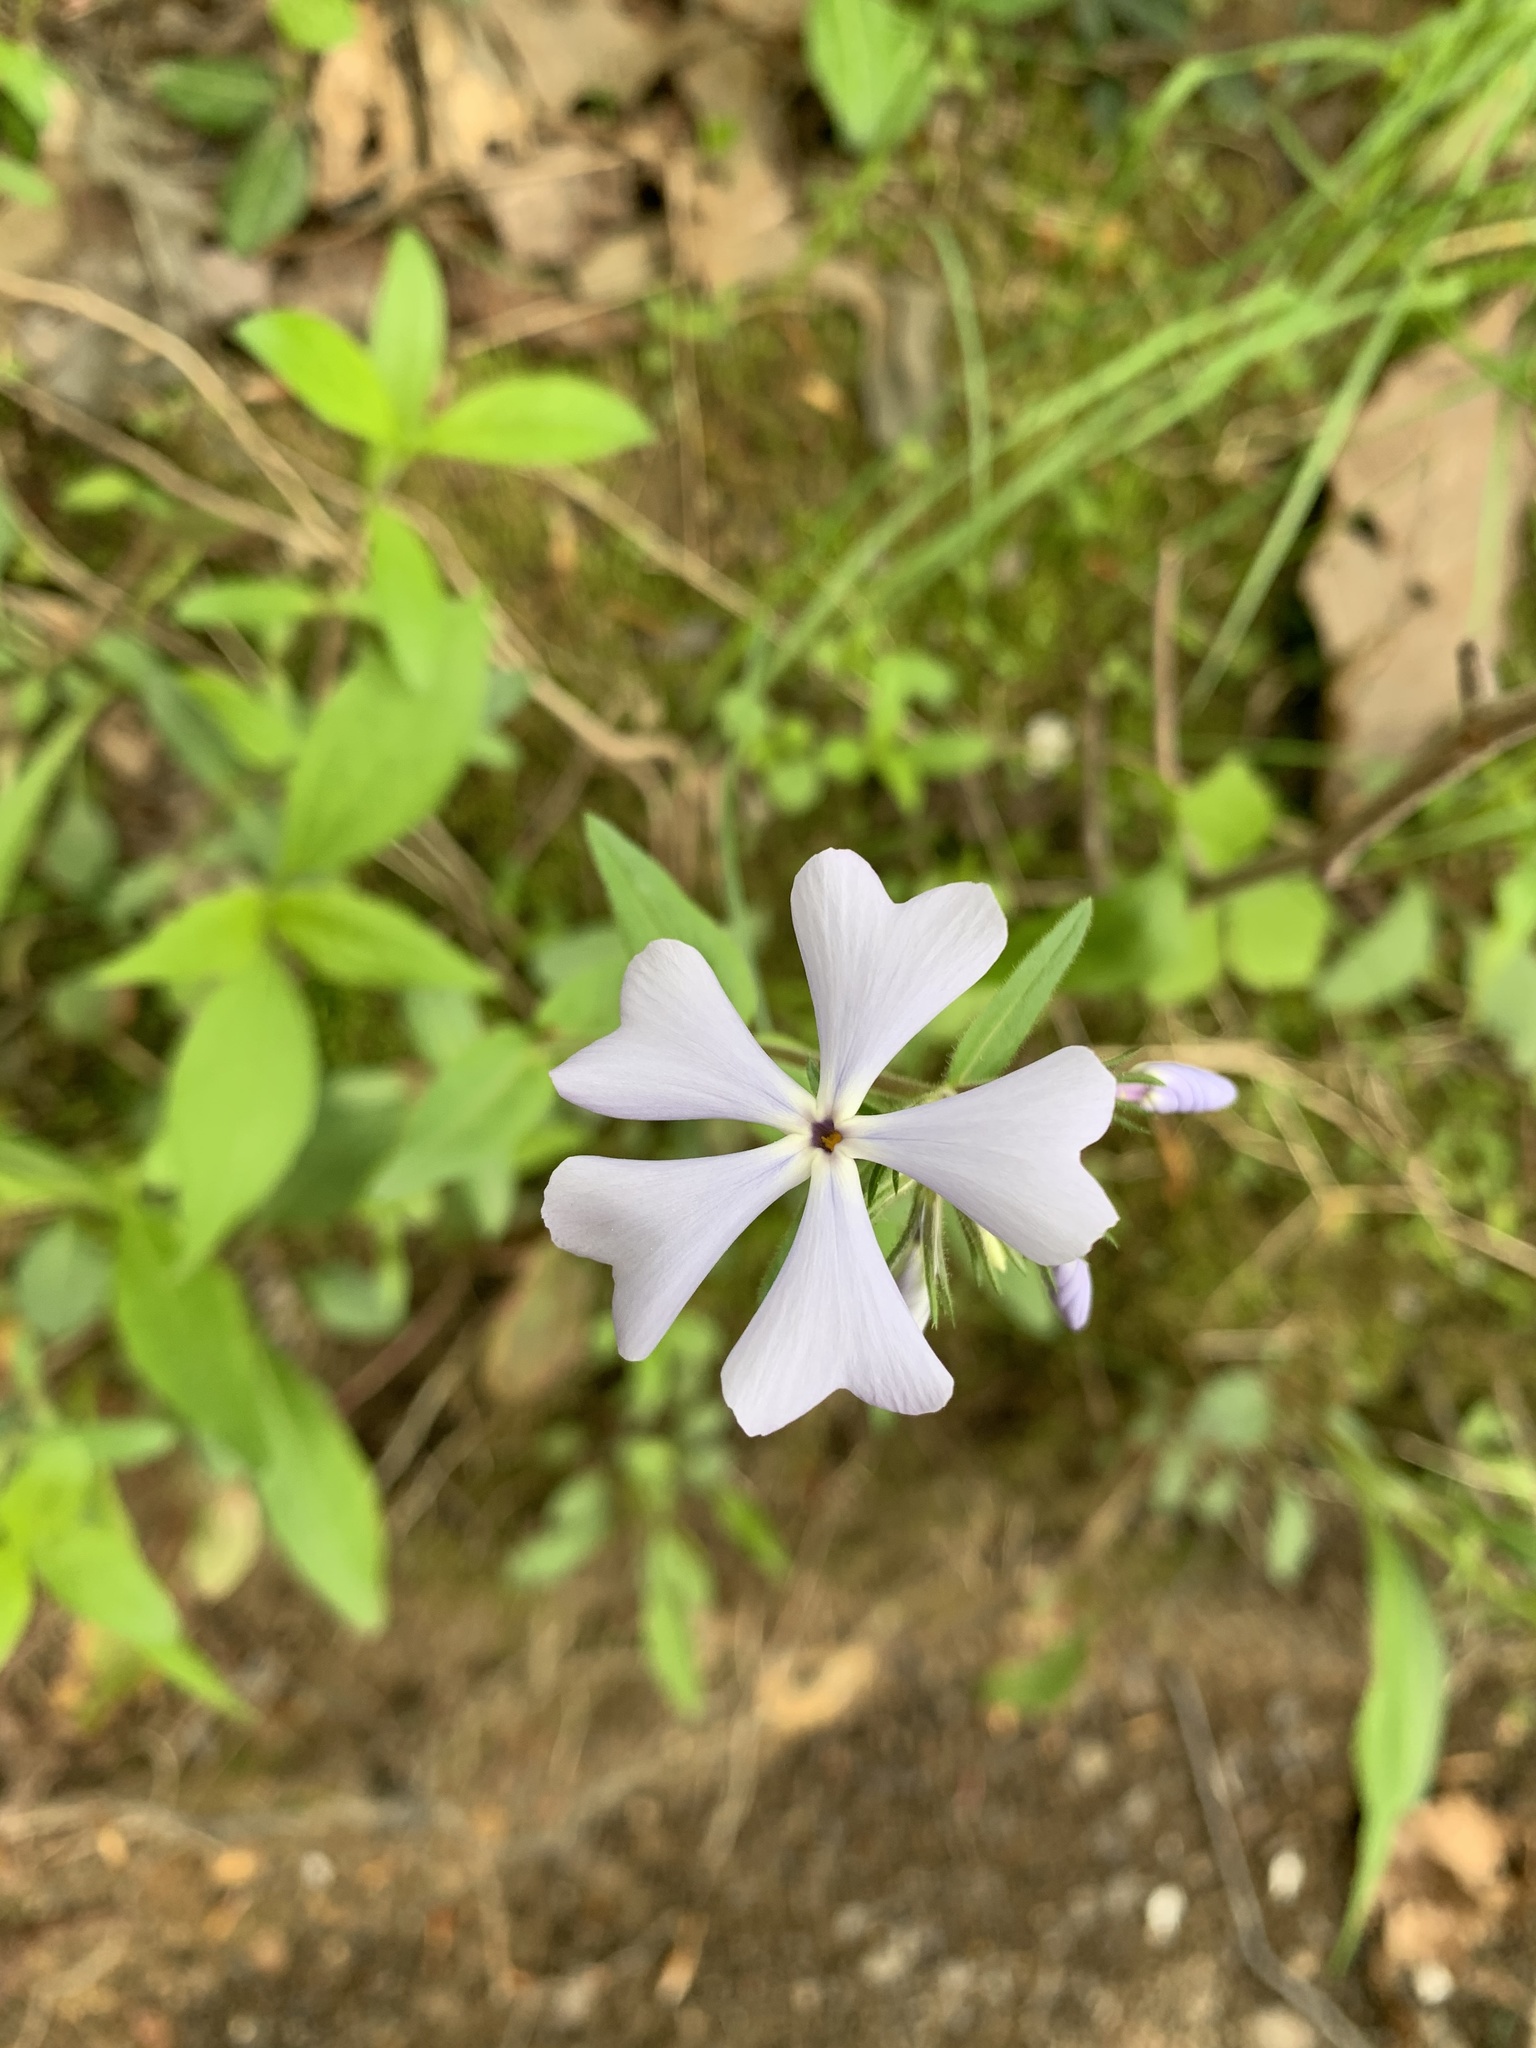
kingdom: Plantae
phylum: Tracheophyta
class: Magnoliopsida
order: Ericales
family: Polemoniaceae
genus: Phlox
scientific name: Phlox divaricata
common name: Blue phlox
